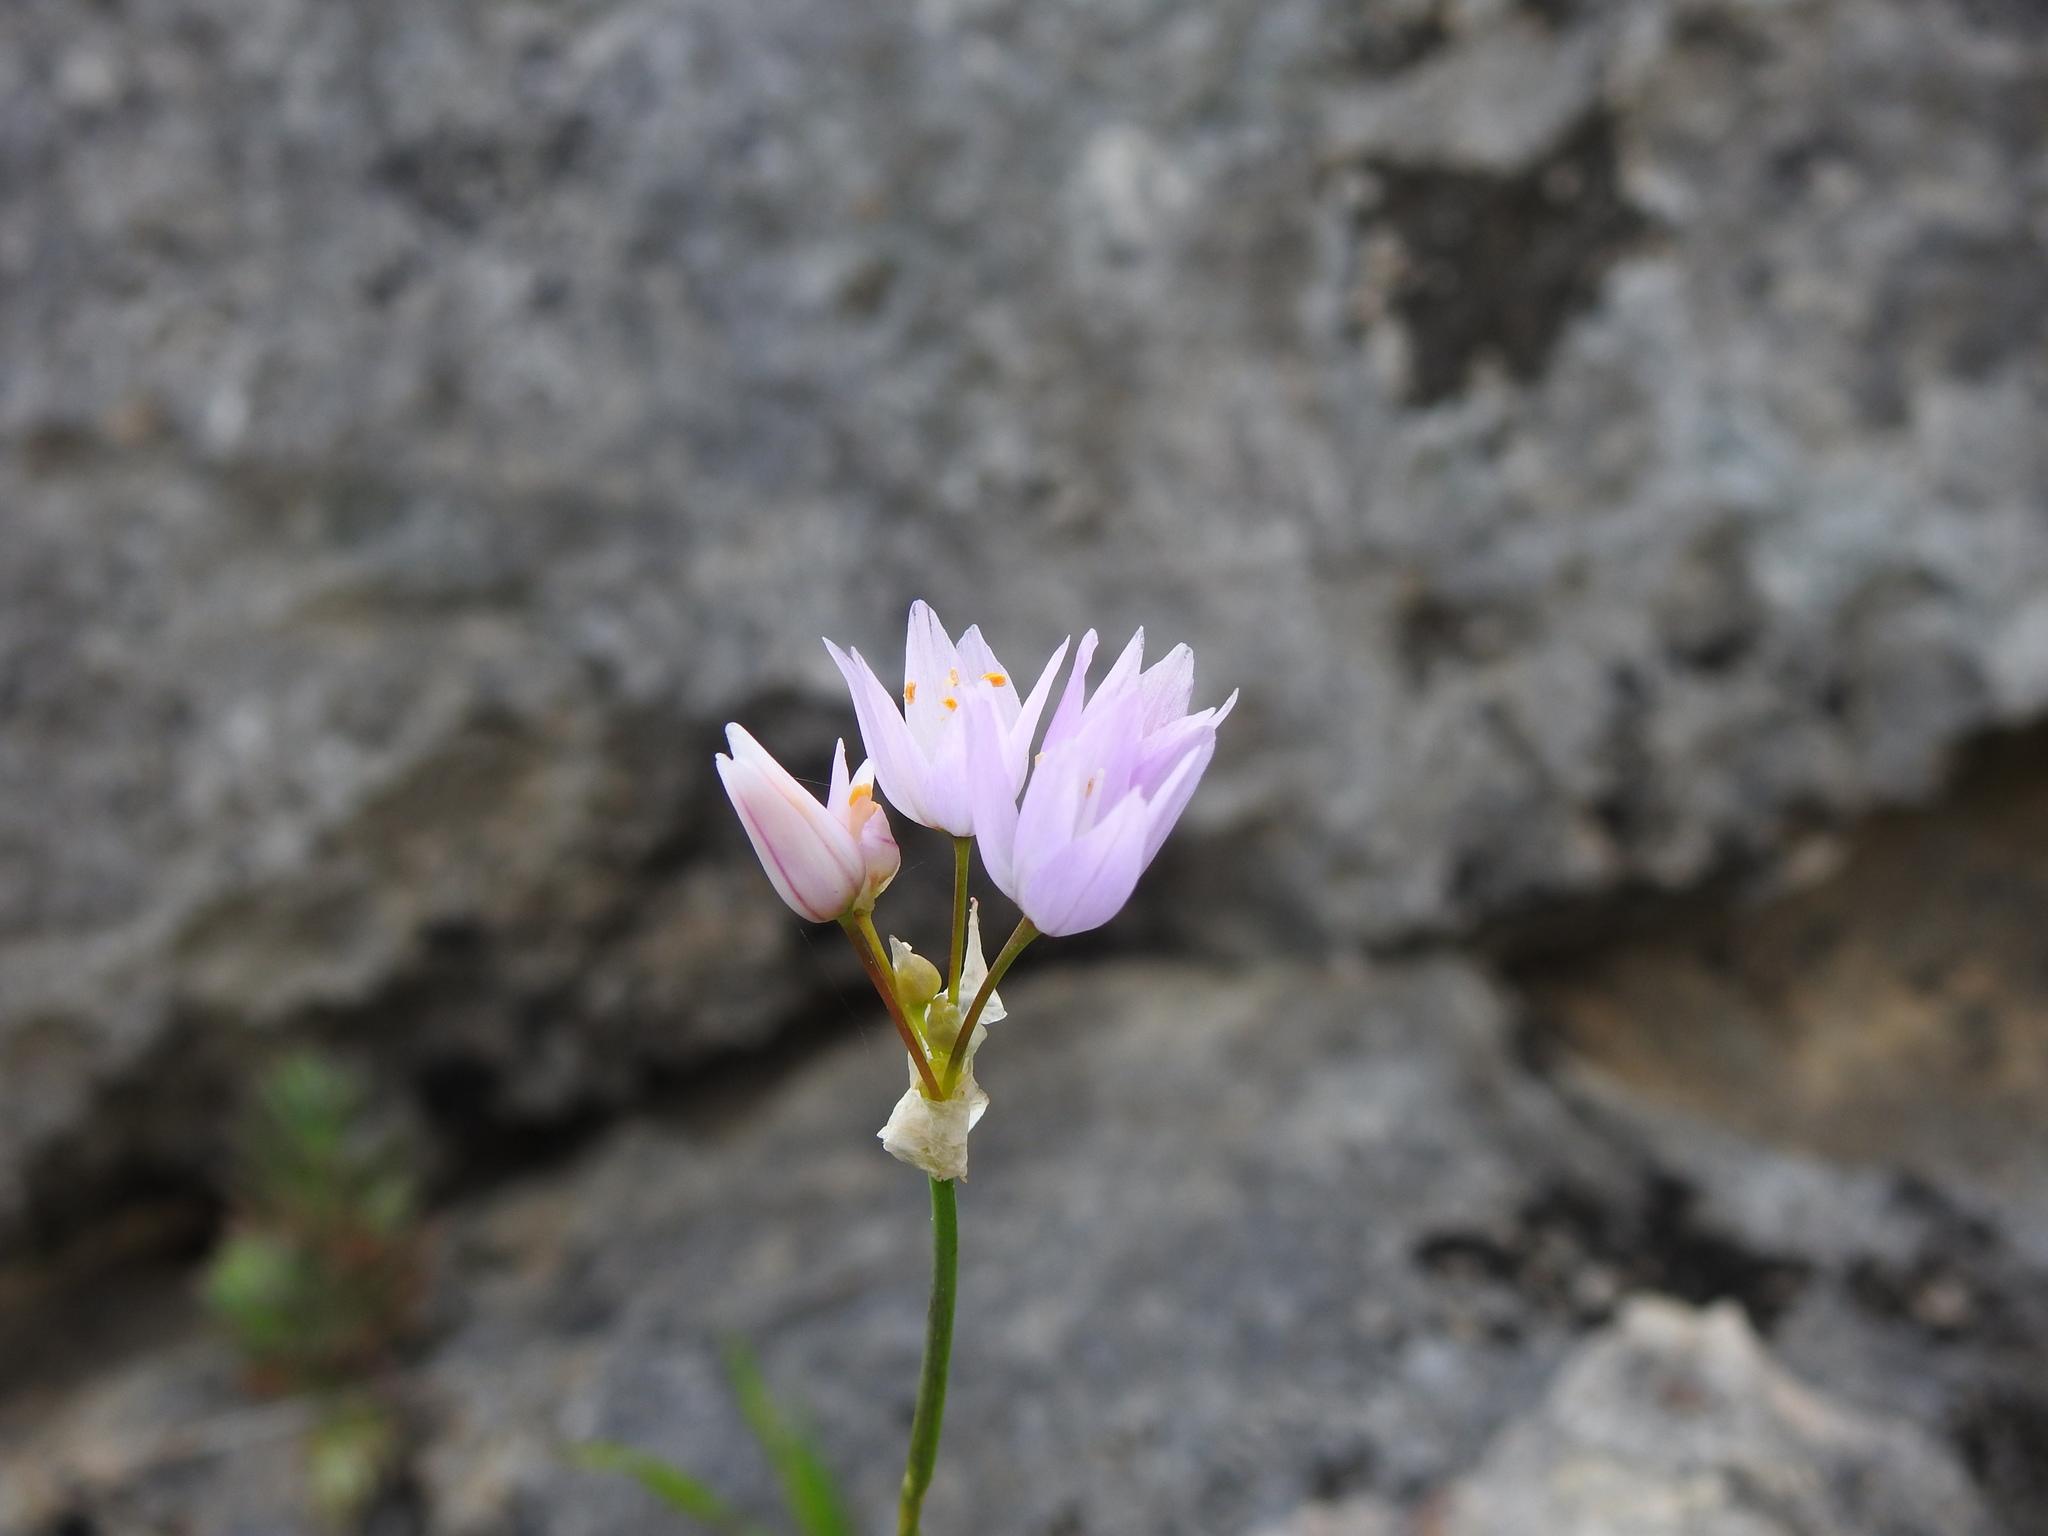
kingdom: Plantae
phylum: Tracheophyta
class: Liliopsida
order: Asparagales
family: Amaryllidaceae
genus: Allium
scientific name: Allium roseum
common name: Rosy garlic
